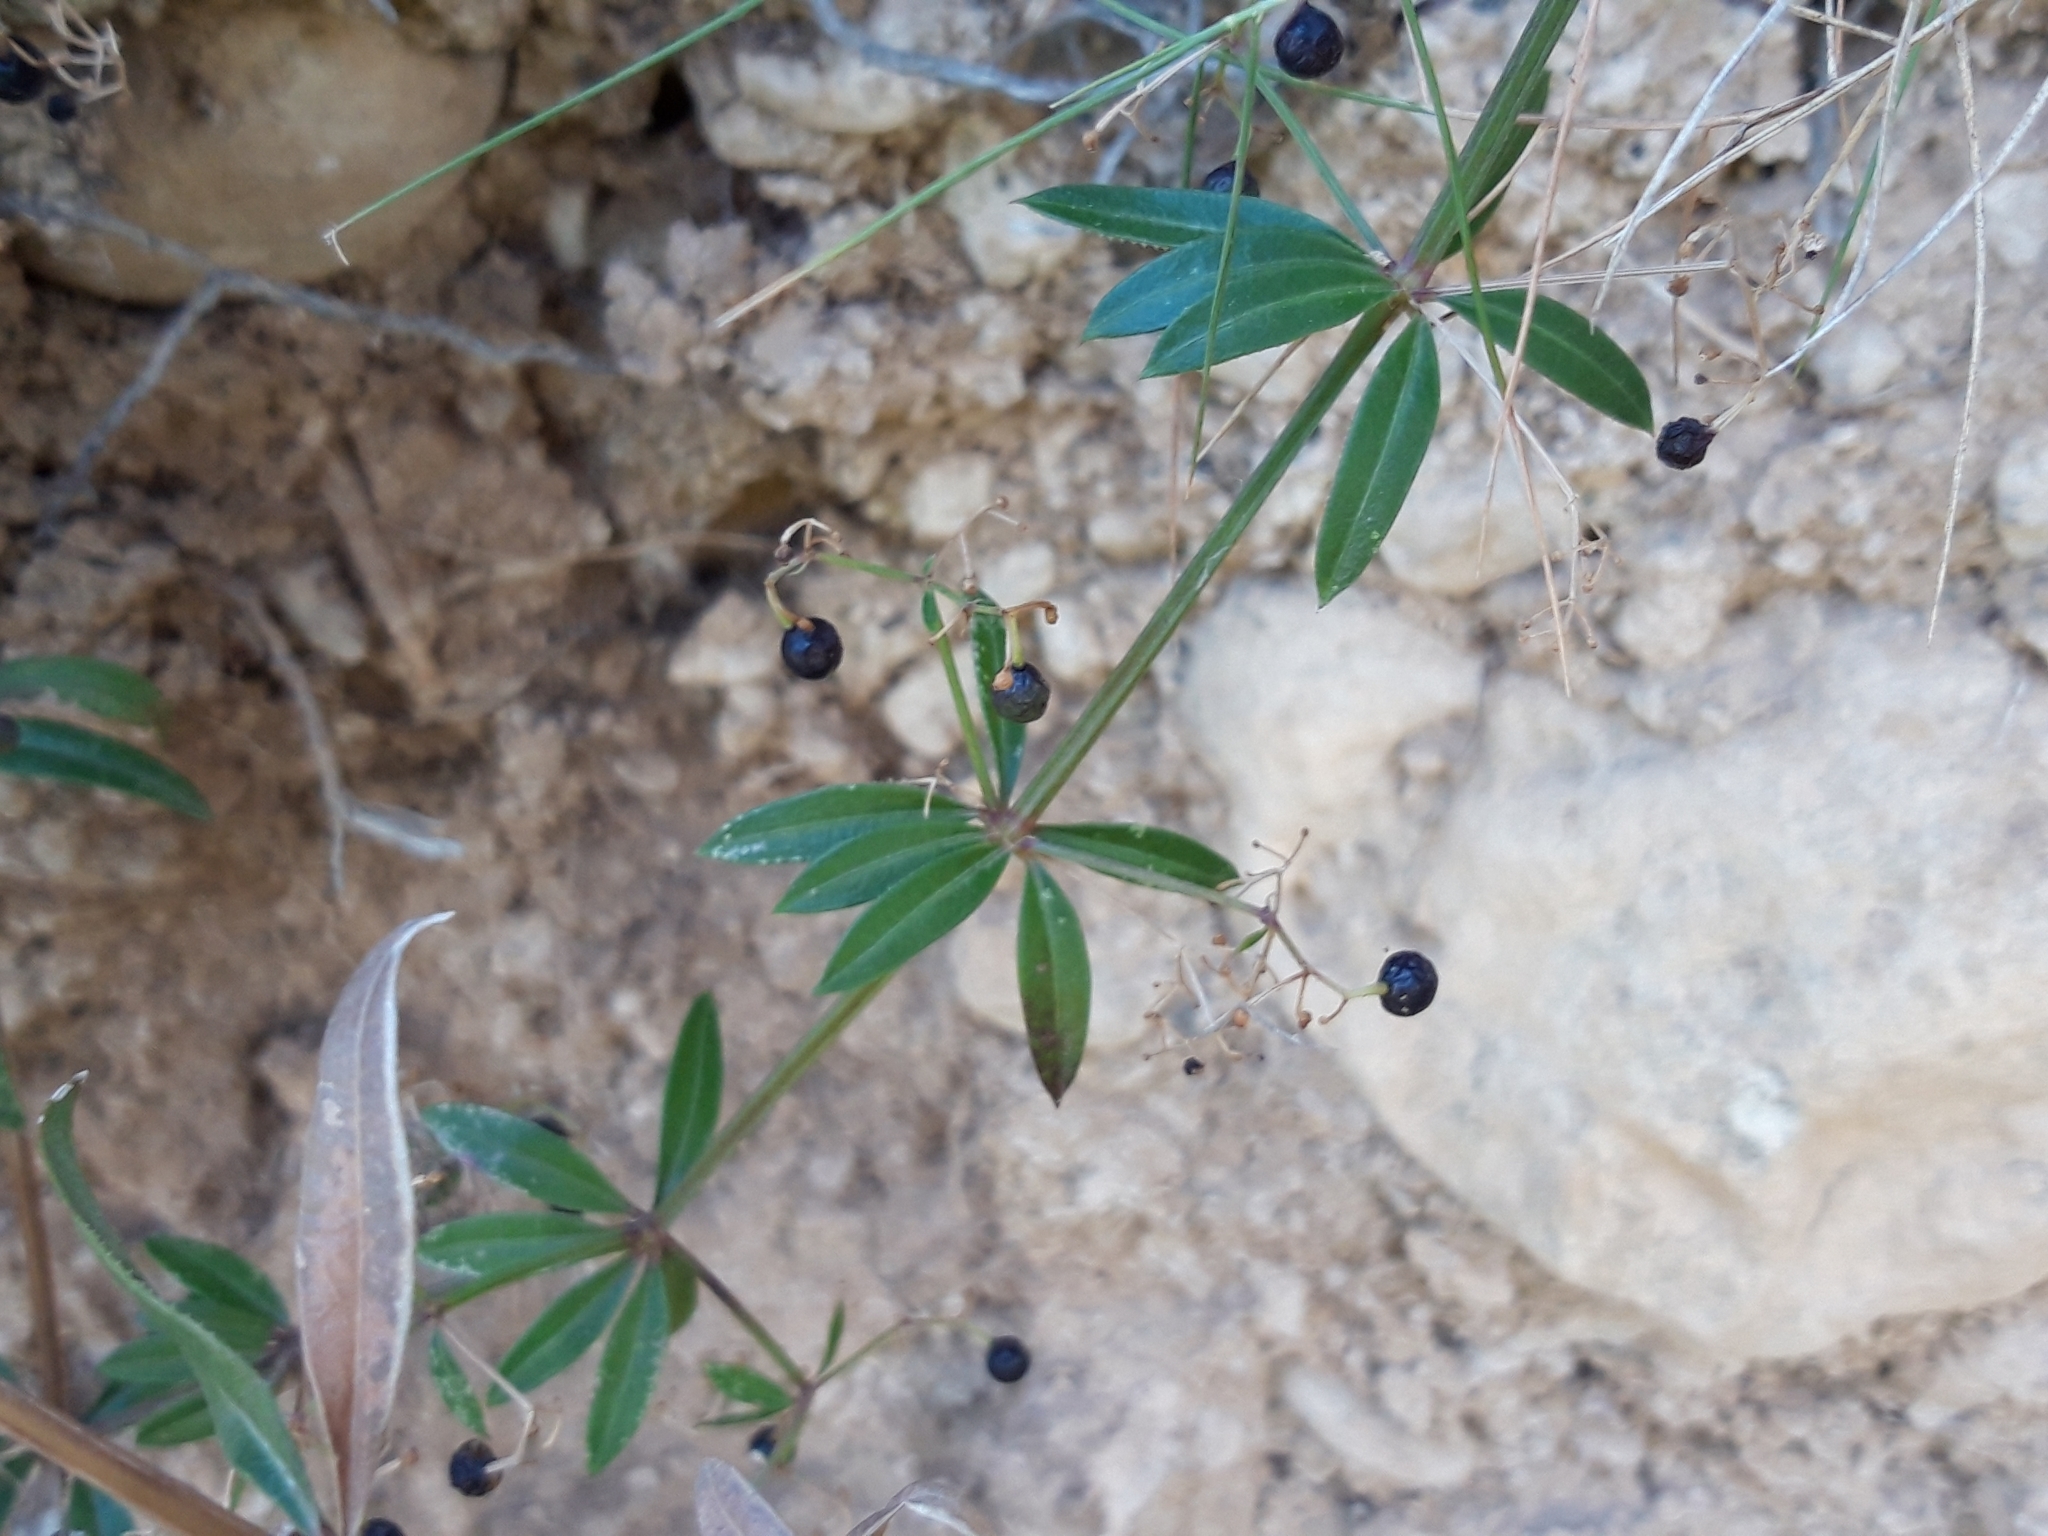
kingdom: Plantae
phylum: Tracheophyta
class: Magnoliopsida
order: Gentianales
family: Rubiaceae
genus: Rubia
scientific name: Rubia peregrina
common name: Wild madder
